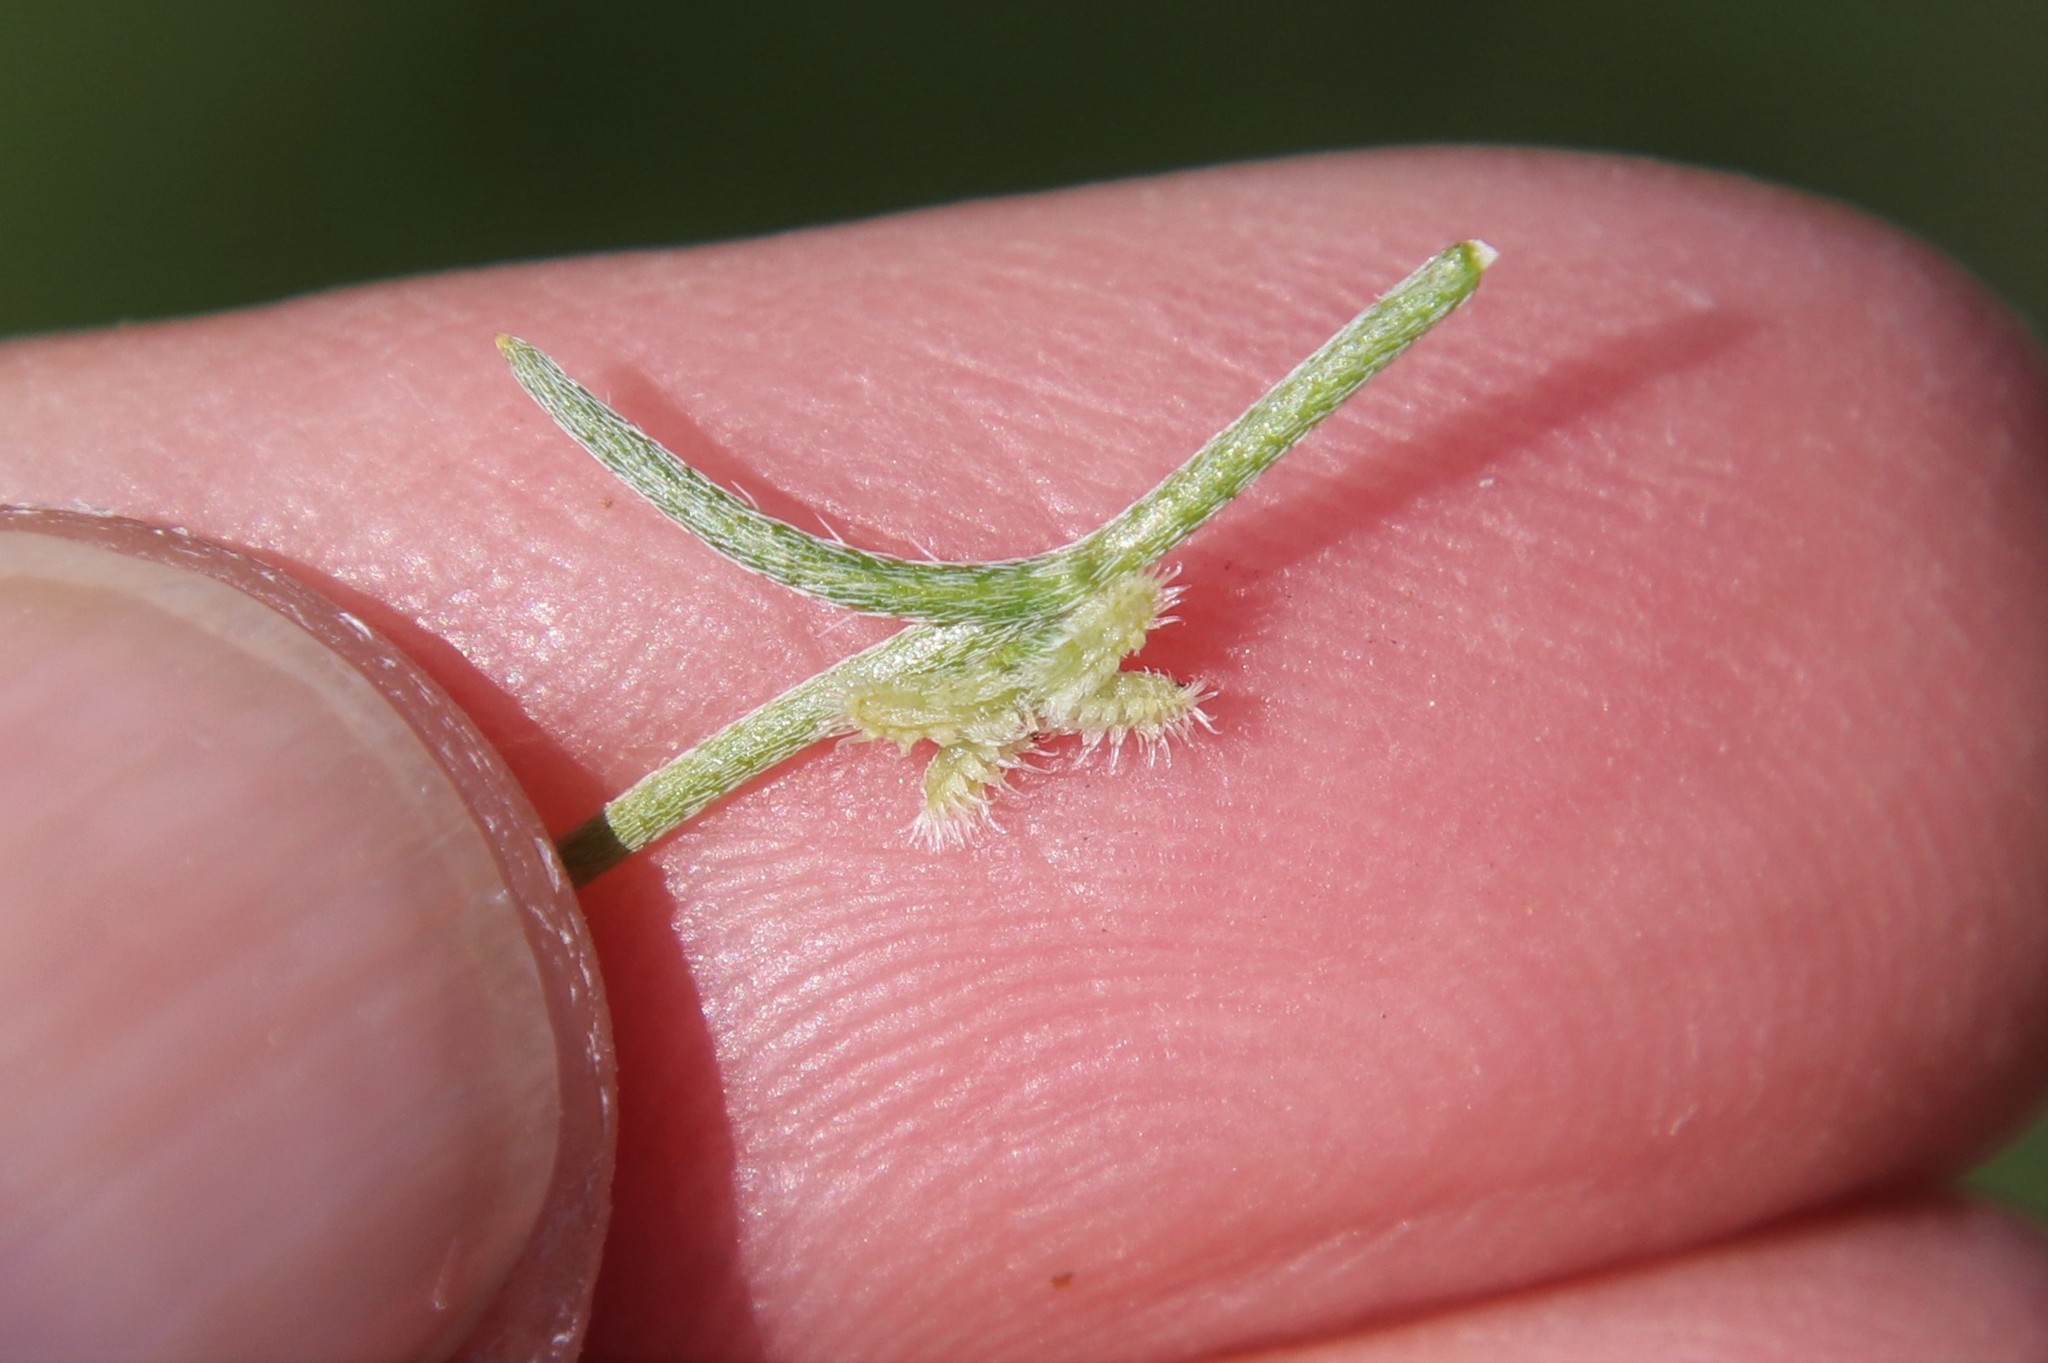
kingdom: Plantae
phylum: Tracheophyta
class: Magnoliopsida
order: Boraginales
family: Boraginaceae
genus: Pectocarya
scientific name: Pectocarya linearis
